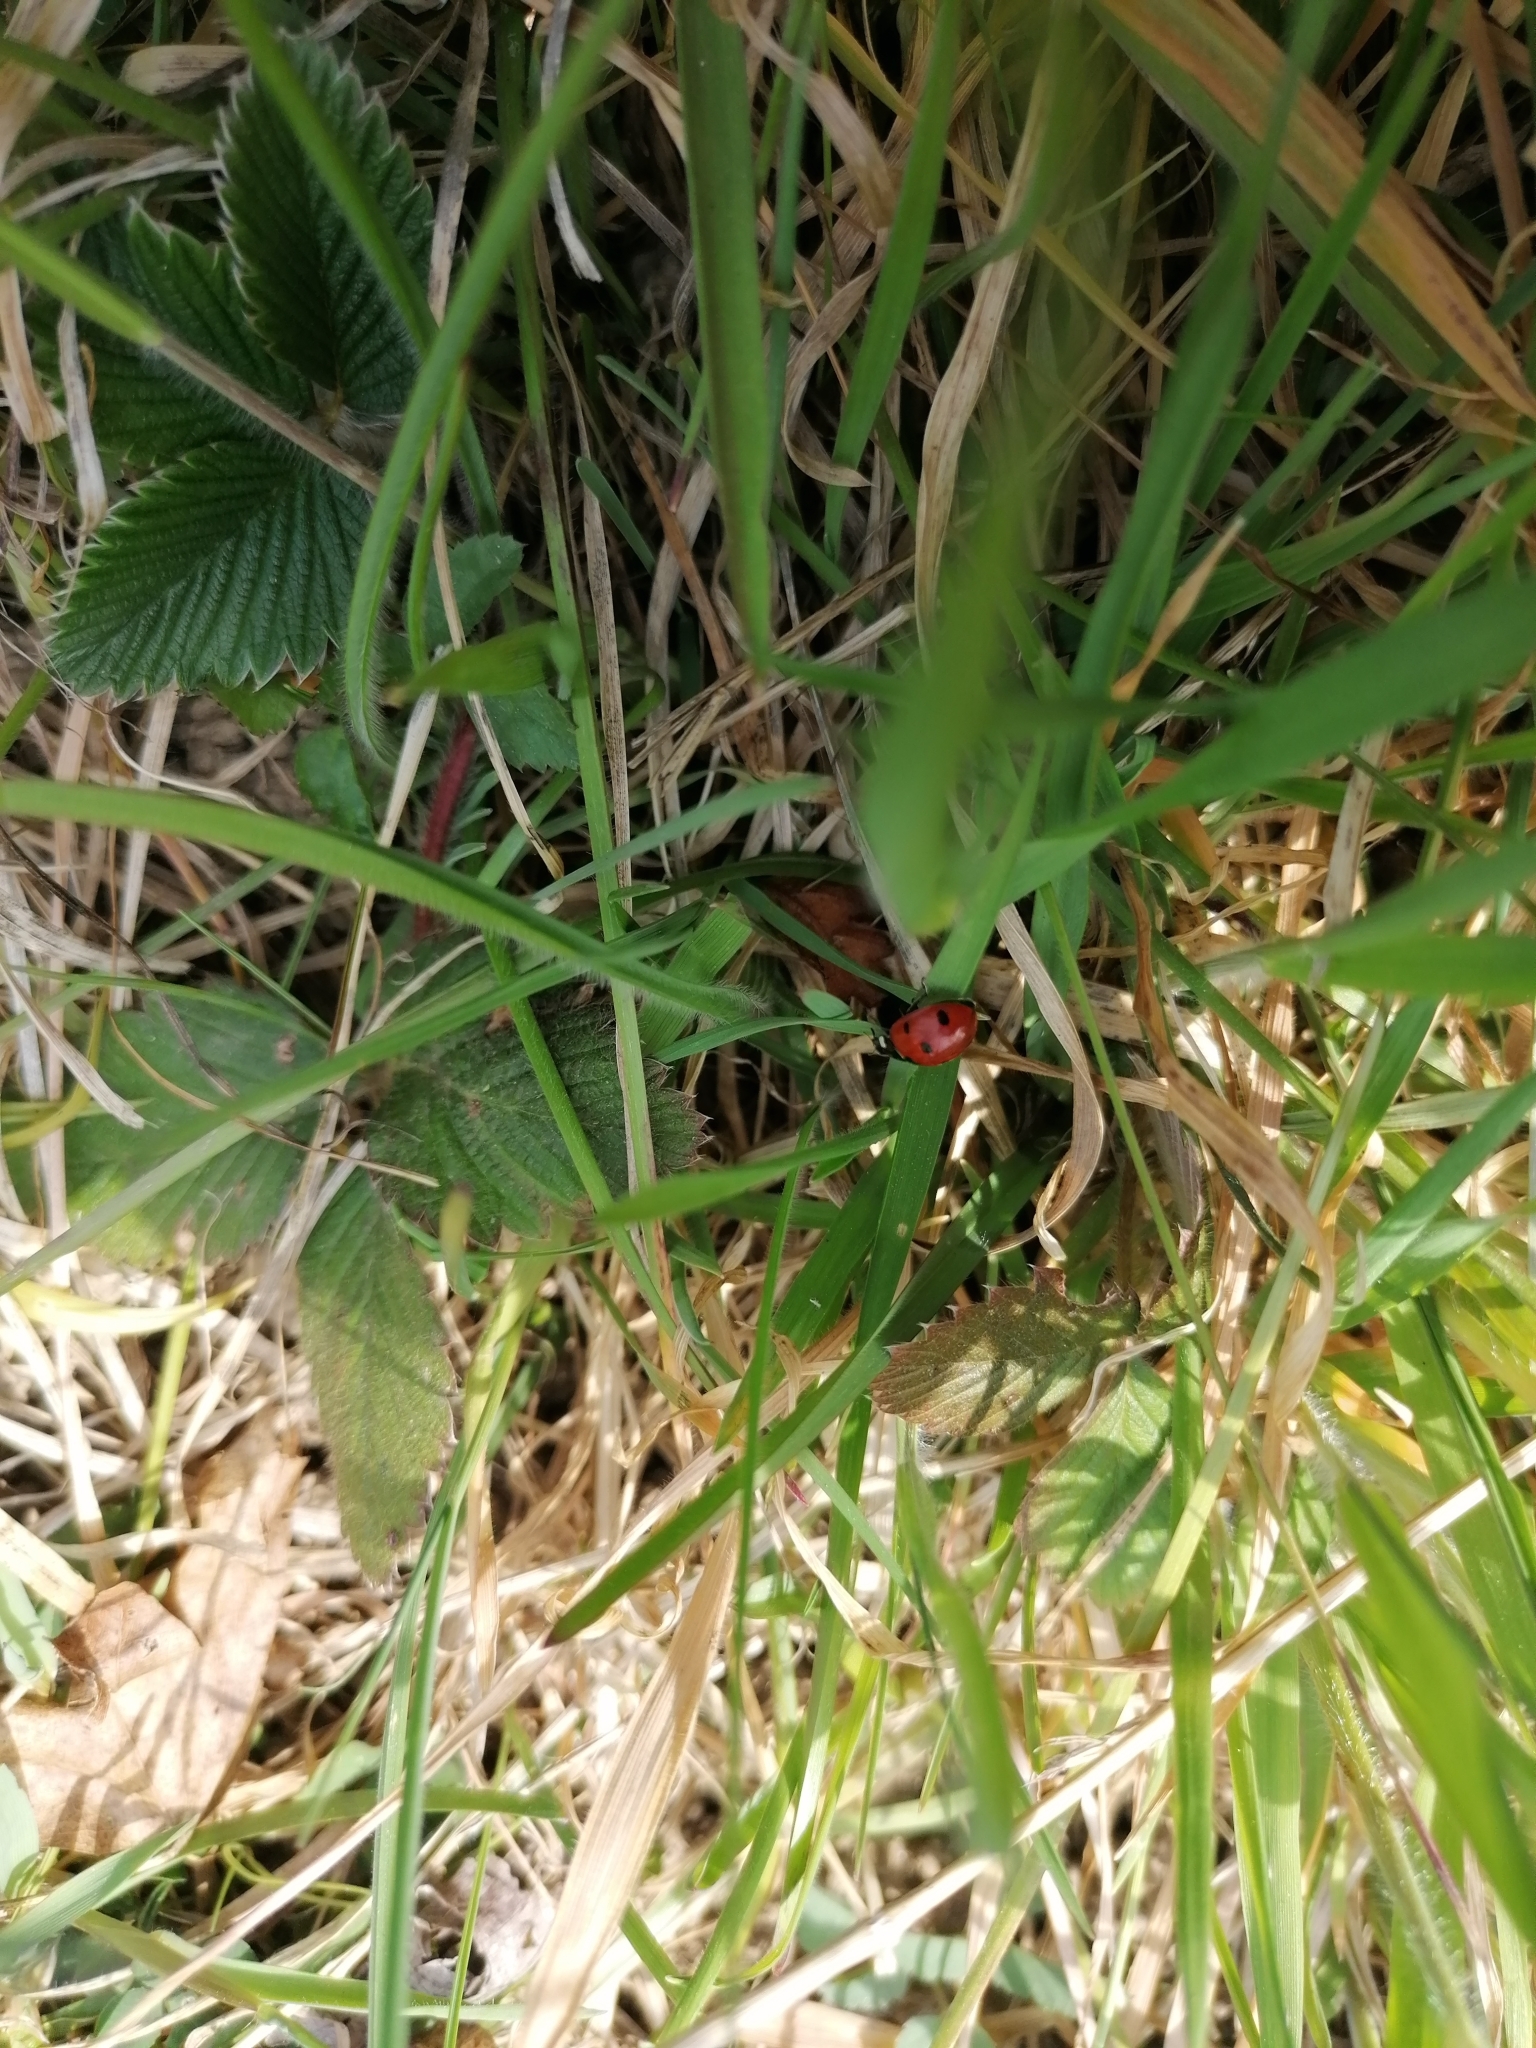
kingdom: Animalia
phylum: Arthropoda
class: Insecta
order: Coleoptera
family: Coccinellidae
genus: Coccinella
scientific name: Coccinella septempunctata
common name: Sevenspotted lady beetle
